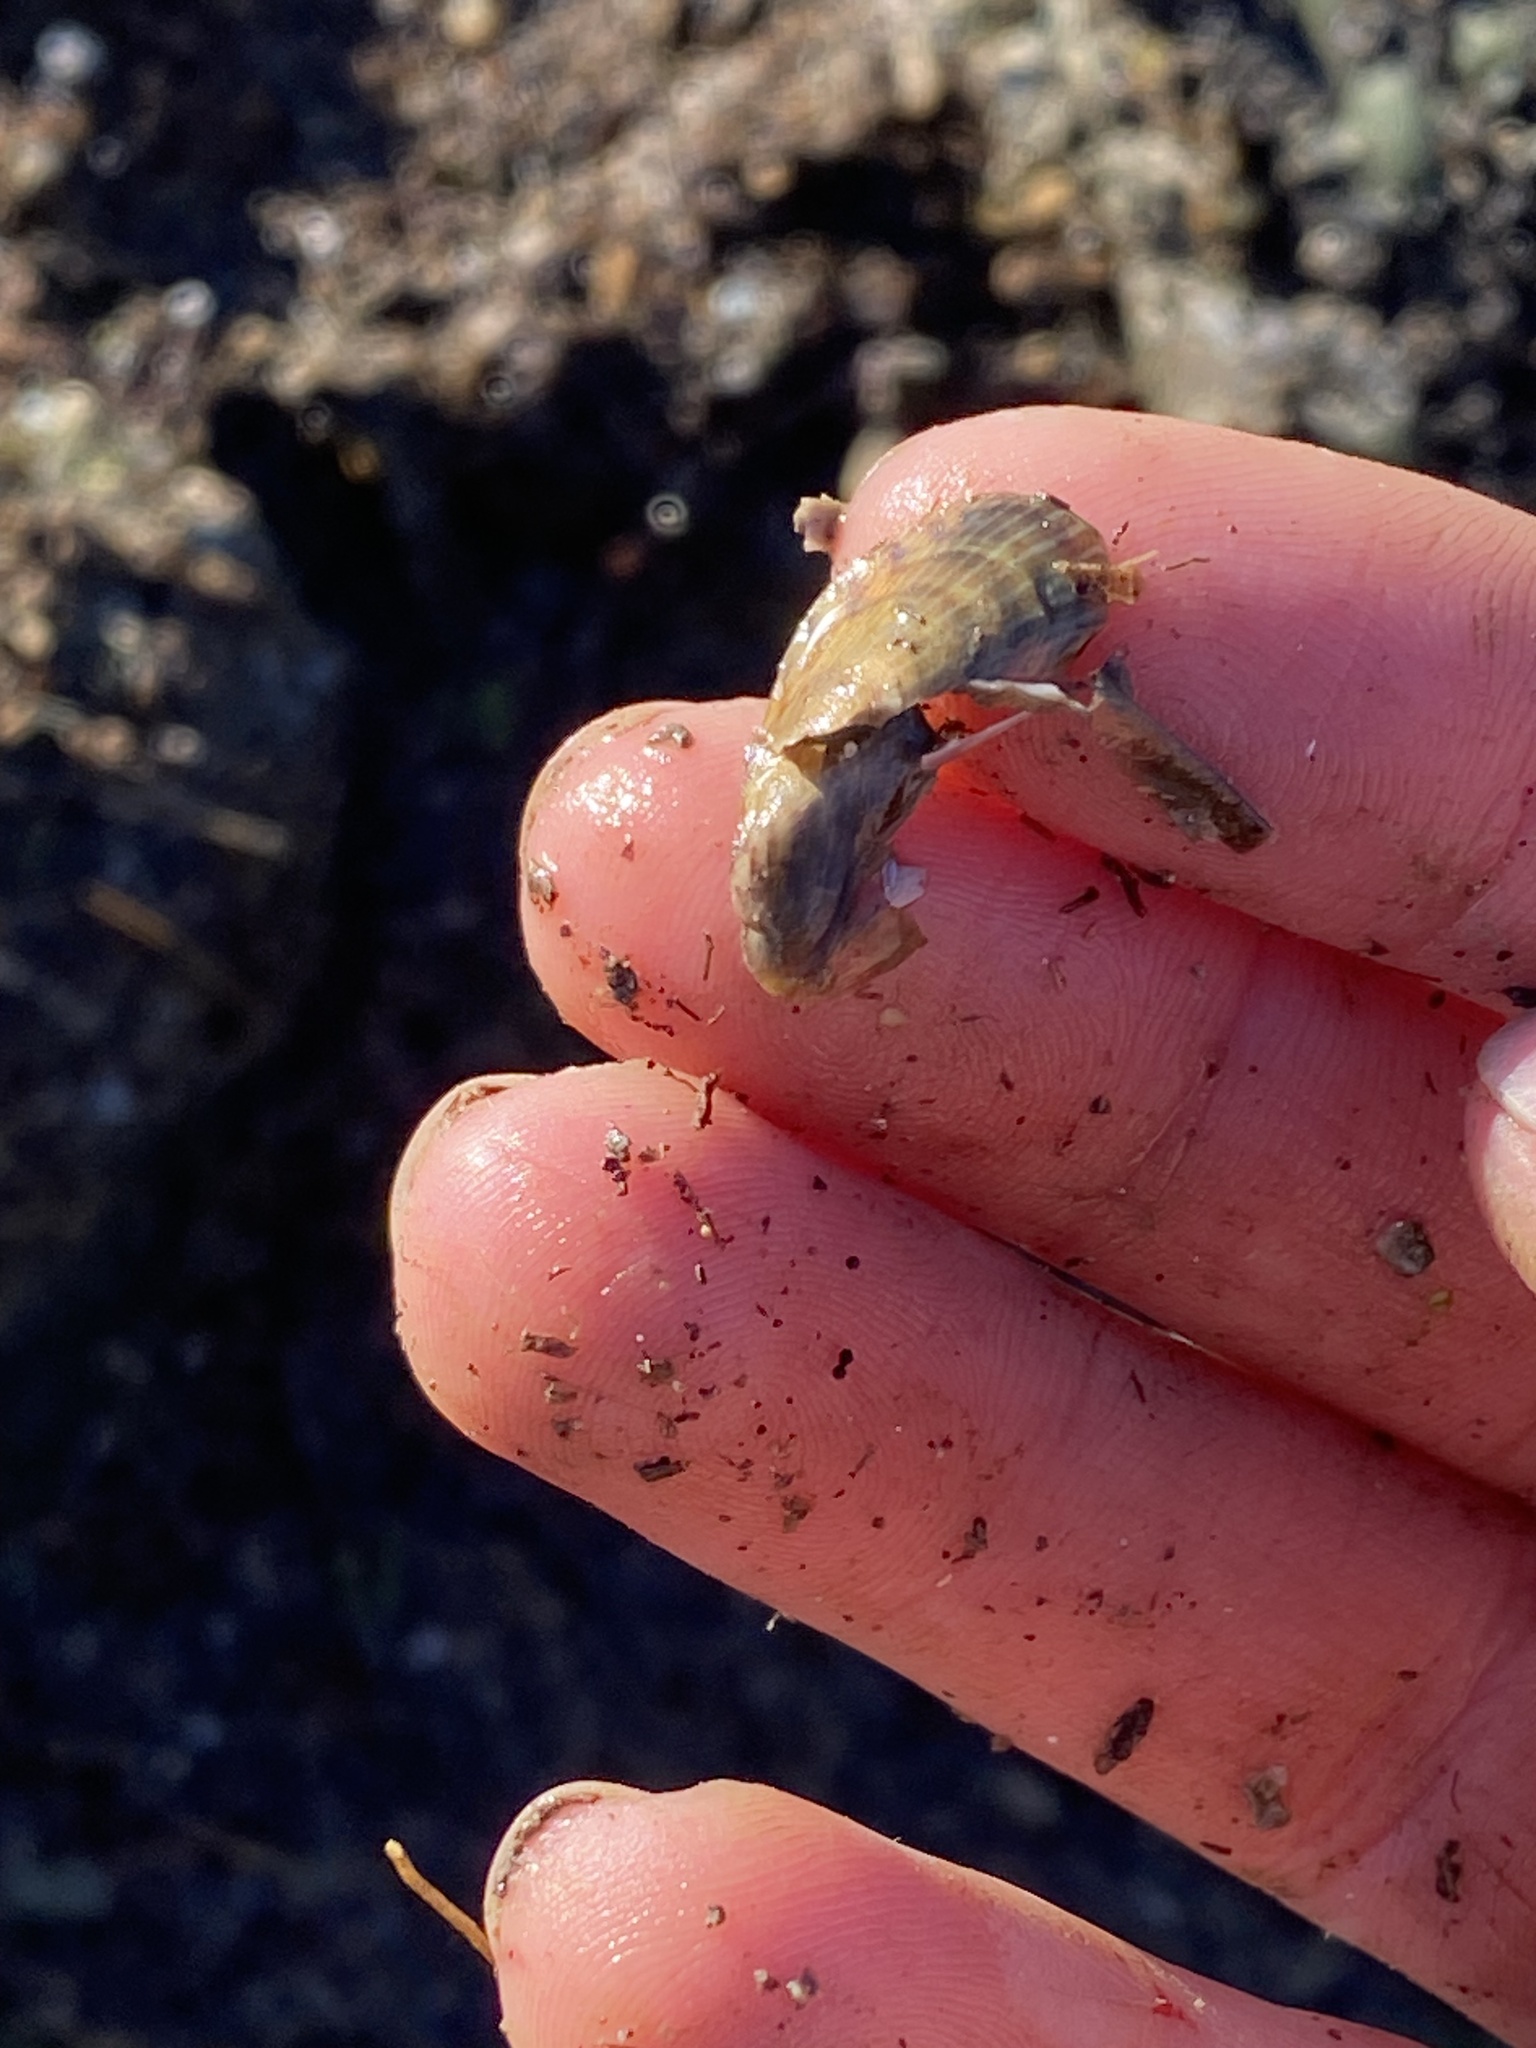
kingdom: Animalia
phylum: Mollusca
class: Bivalvia
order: Mytilida
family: Mytilidae
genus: Arcuatula
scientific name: Arcuatula senhousia
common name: Asian mussel
